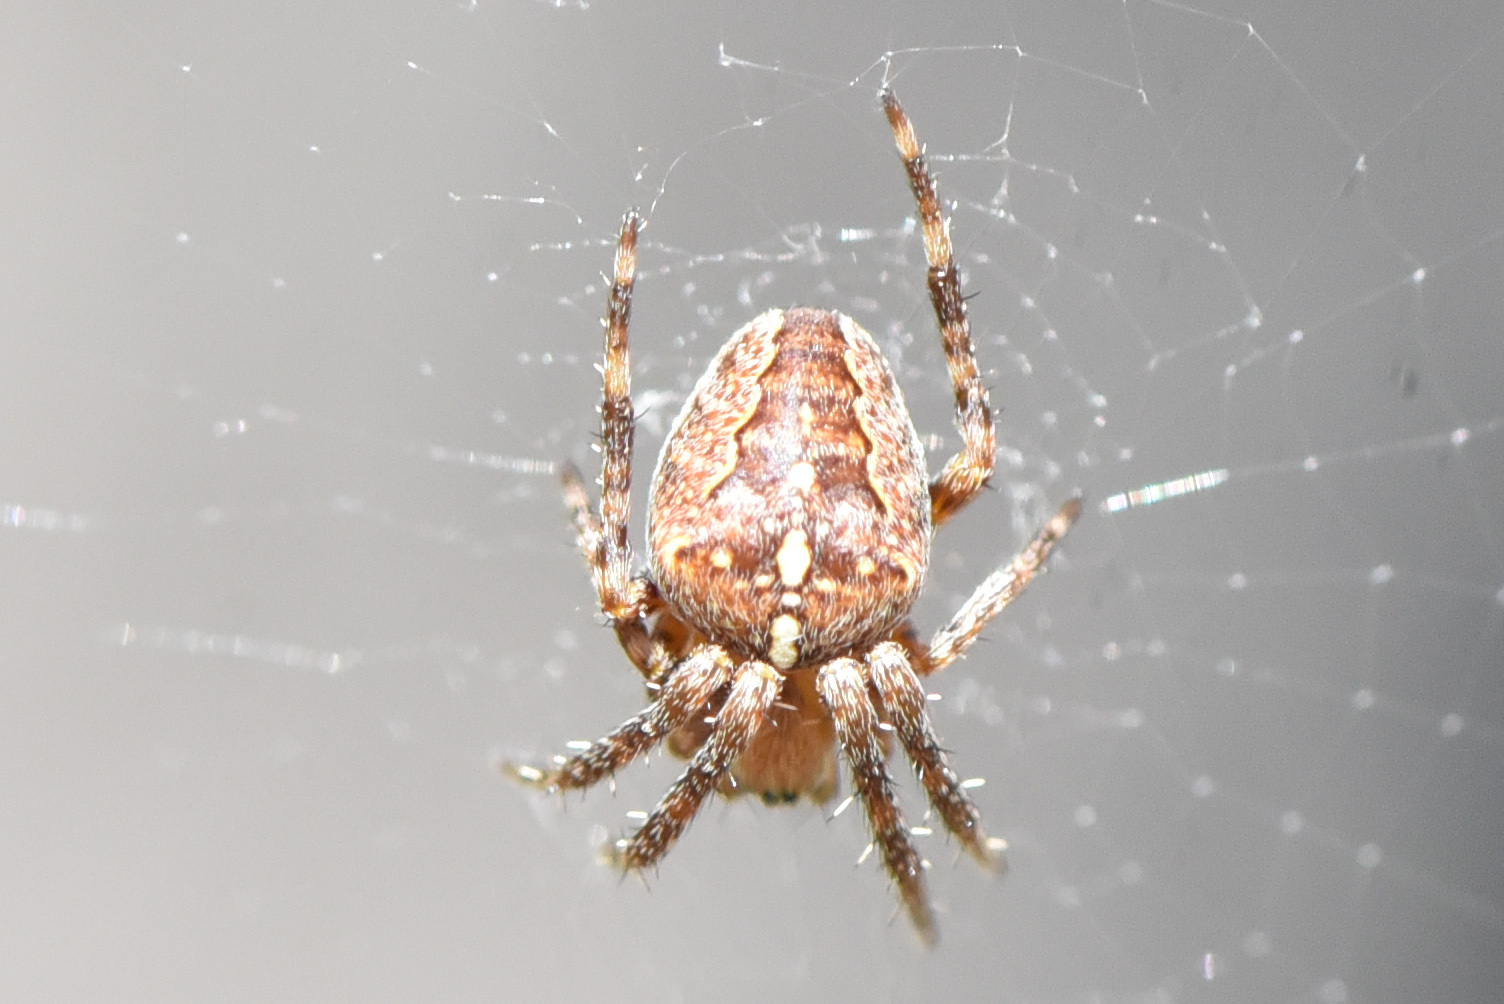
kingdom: Animalia
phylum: Arthropoda
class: Arachnida
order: Araneae
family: Araneidae
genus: Araneus
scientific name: Araneus diadematus
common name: Cross orbweaver
